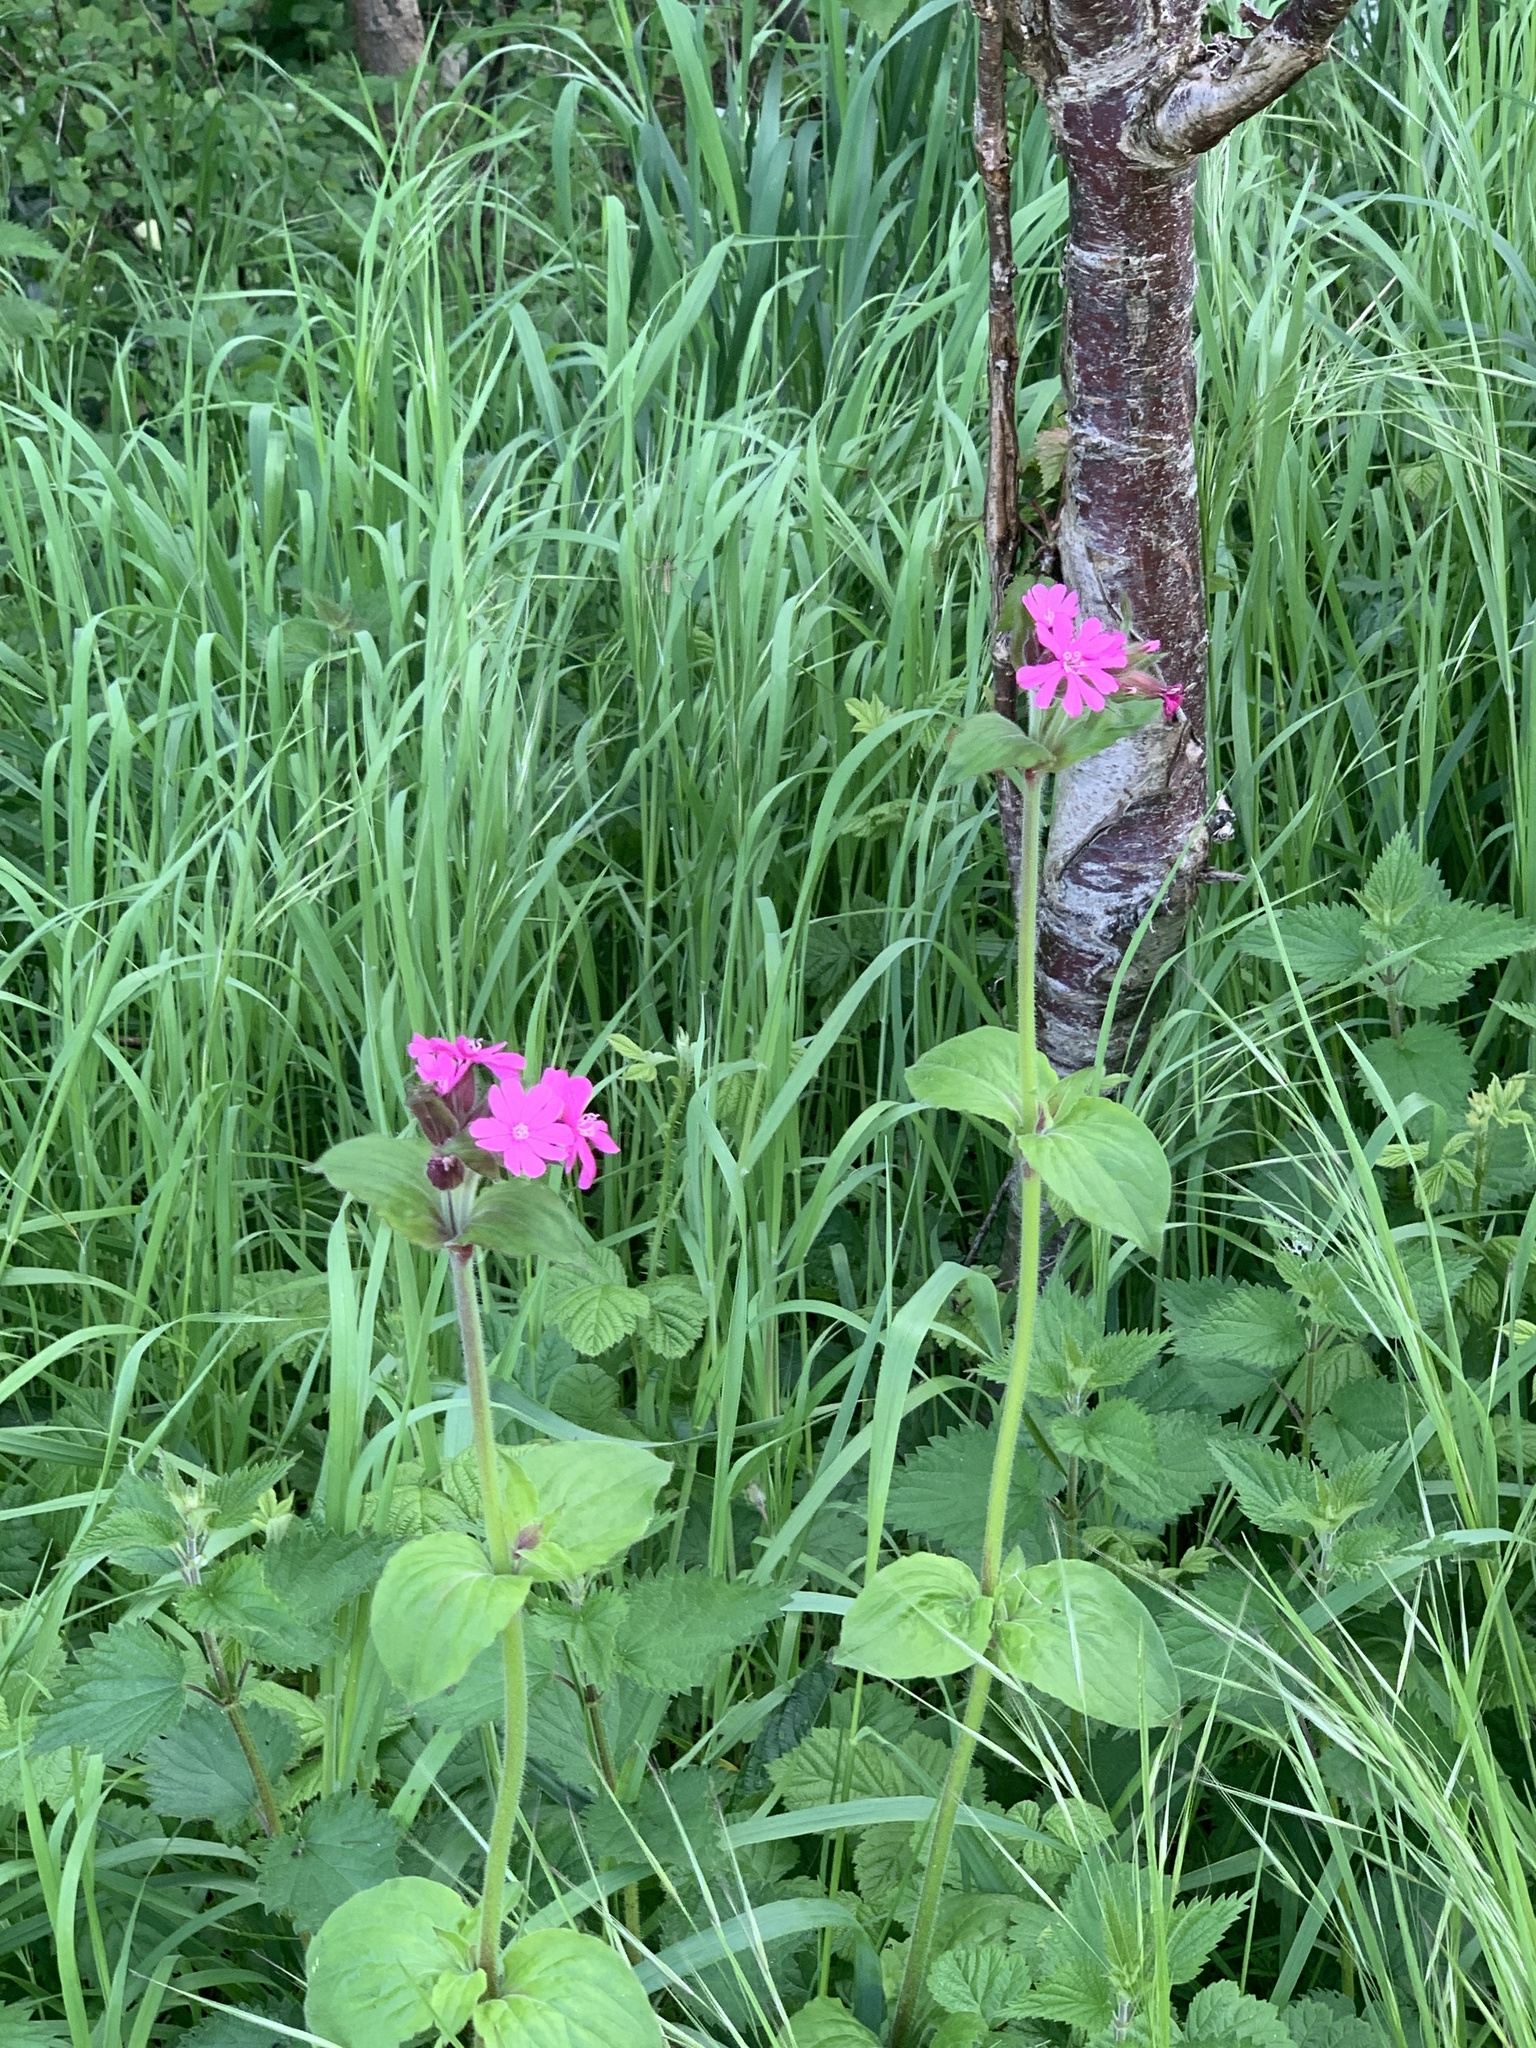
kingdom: Plantae
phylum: Tracheophyta
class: Magnoliopsida
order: Caryophyllales
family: Caryophyllaceae
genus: Silene
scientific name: Silene dioica
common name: Red campion
